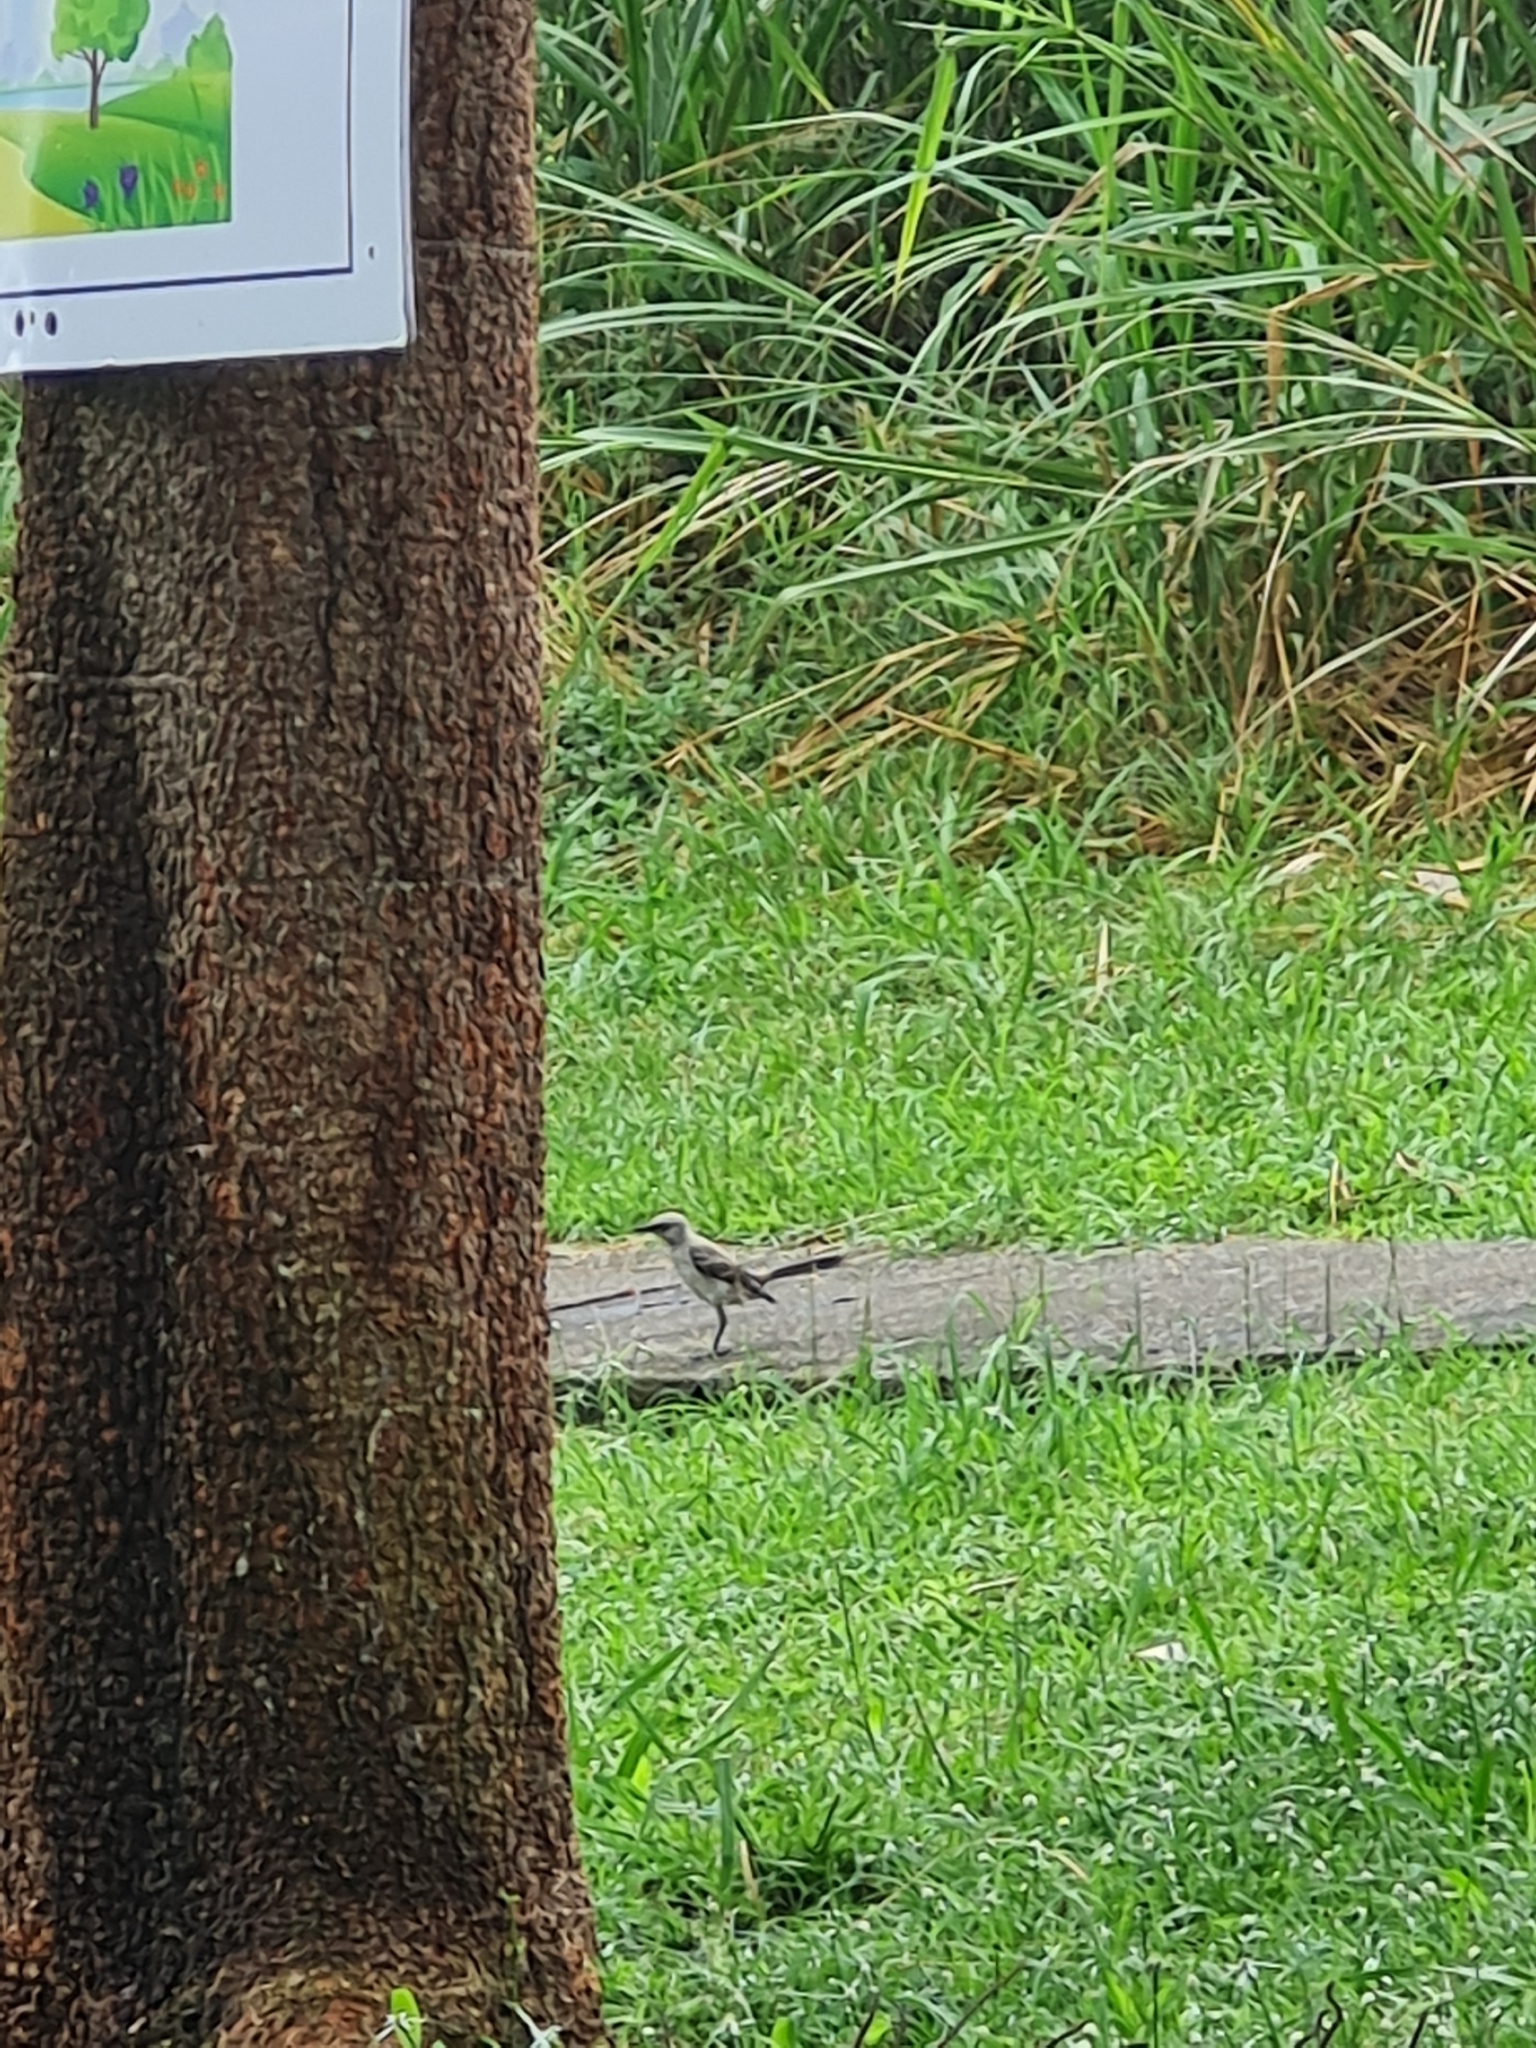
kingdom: Animalia
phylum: Chordata
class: Aves
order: Passeriformes
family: Mimidae
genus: Mimus
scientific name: Mimus gilvus
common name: Tropical mockingbird
